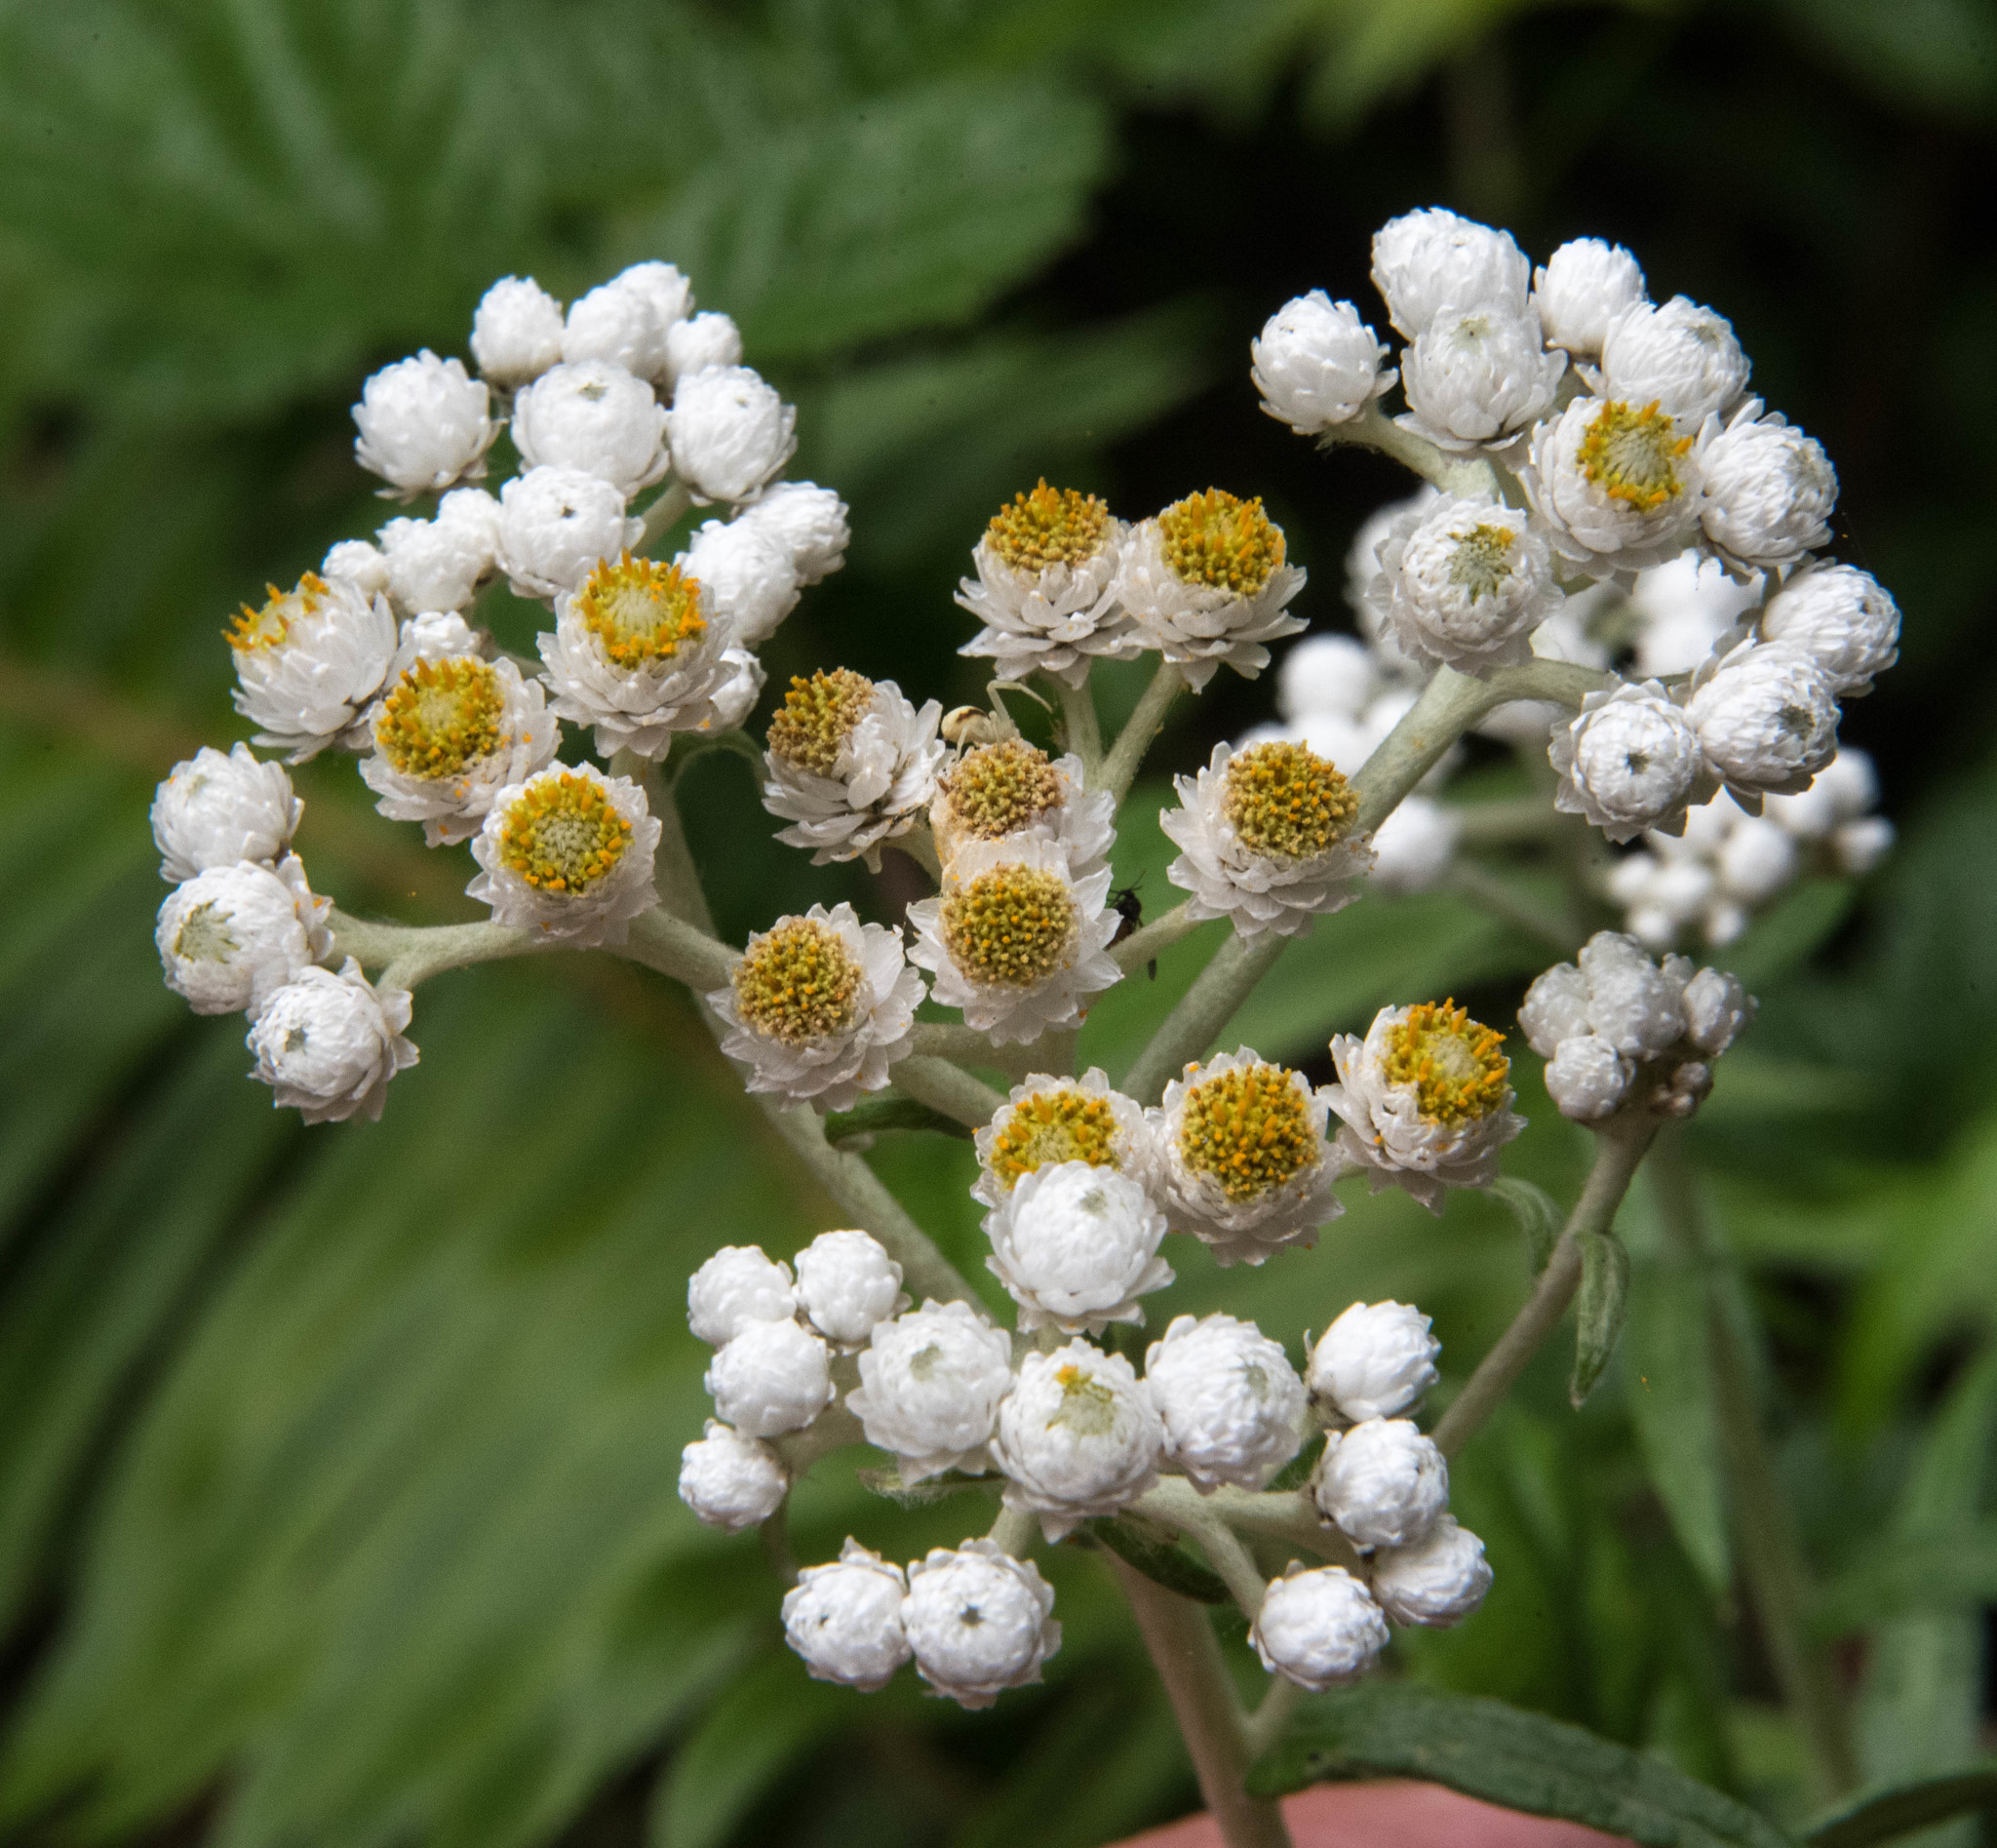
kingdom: Plantae
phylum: Tracheophyta
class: Magnoliopsida
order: Asterales
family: Asteraceae
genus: Anaphalis
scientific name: Anaphalis margaritacea
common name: Pearly everlasting
